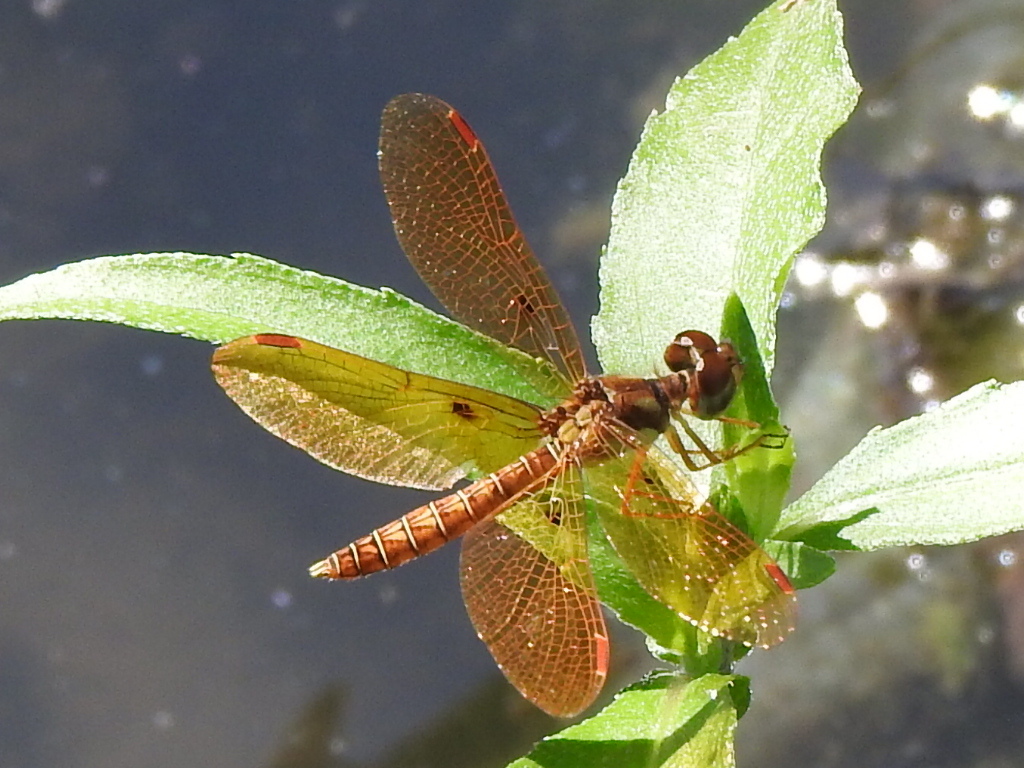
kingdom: Animalia
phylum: Arthropoda
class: Insecta
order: Odonata
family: Libellulidae
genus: Perithemis
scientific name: Perithemis tenera
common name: Eastern amberwing
